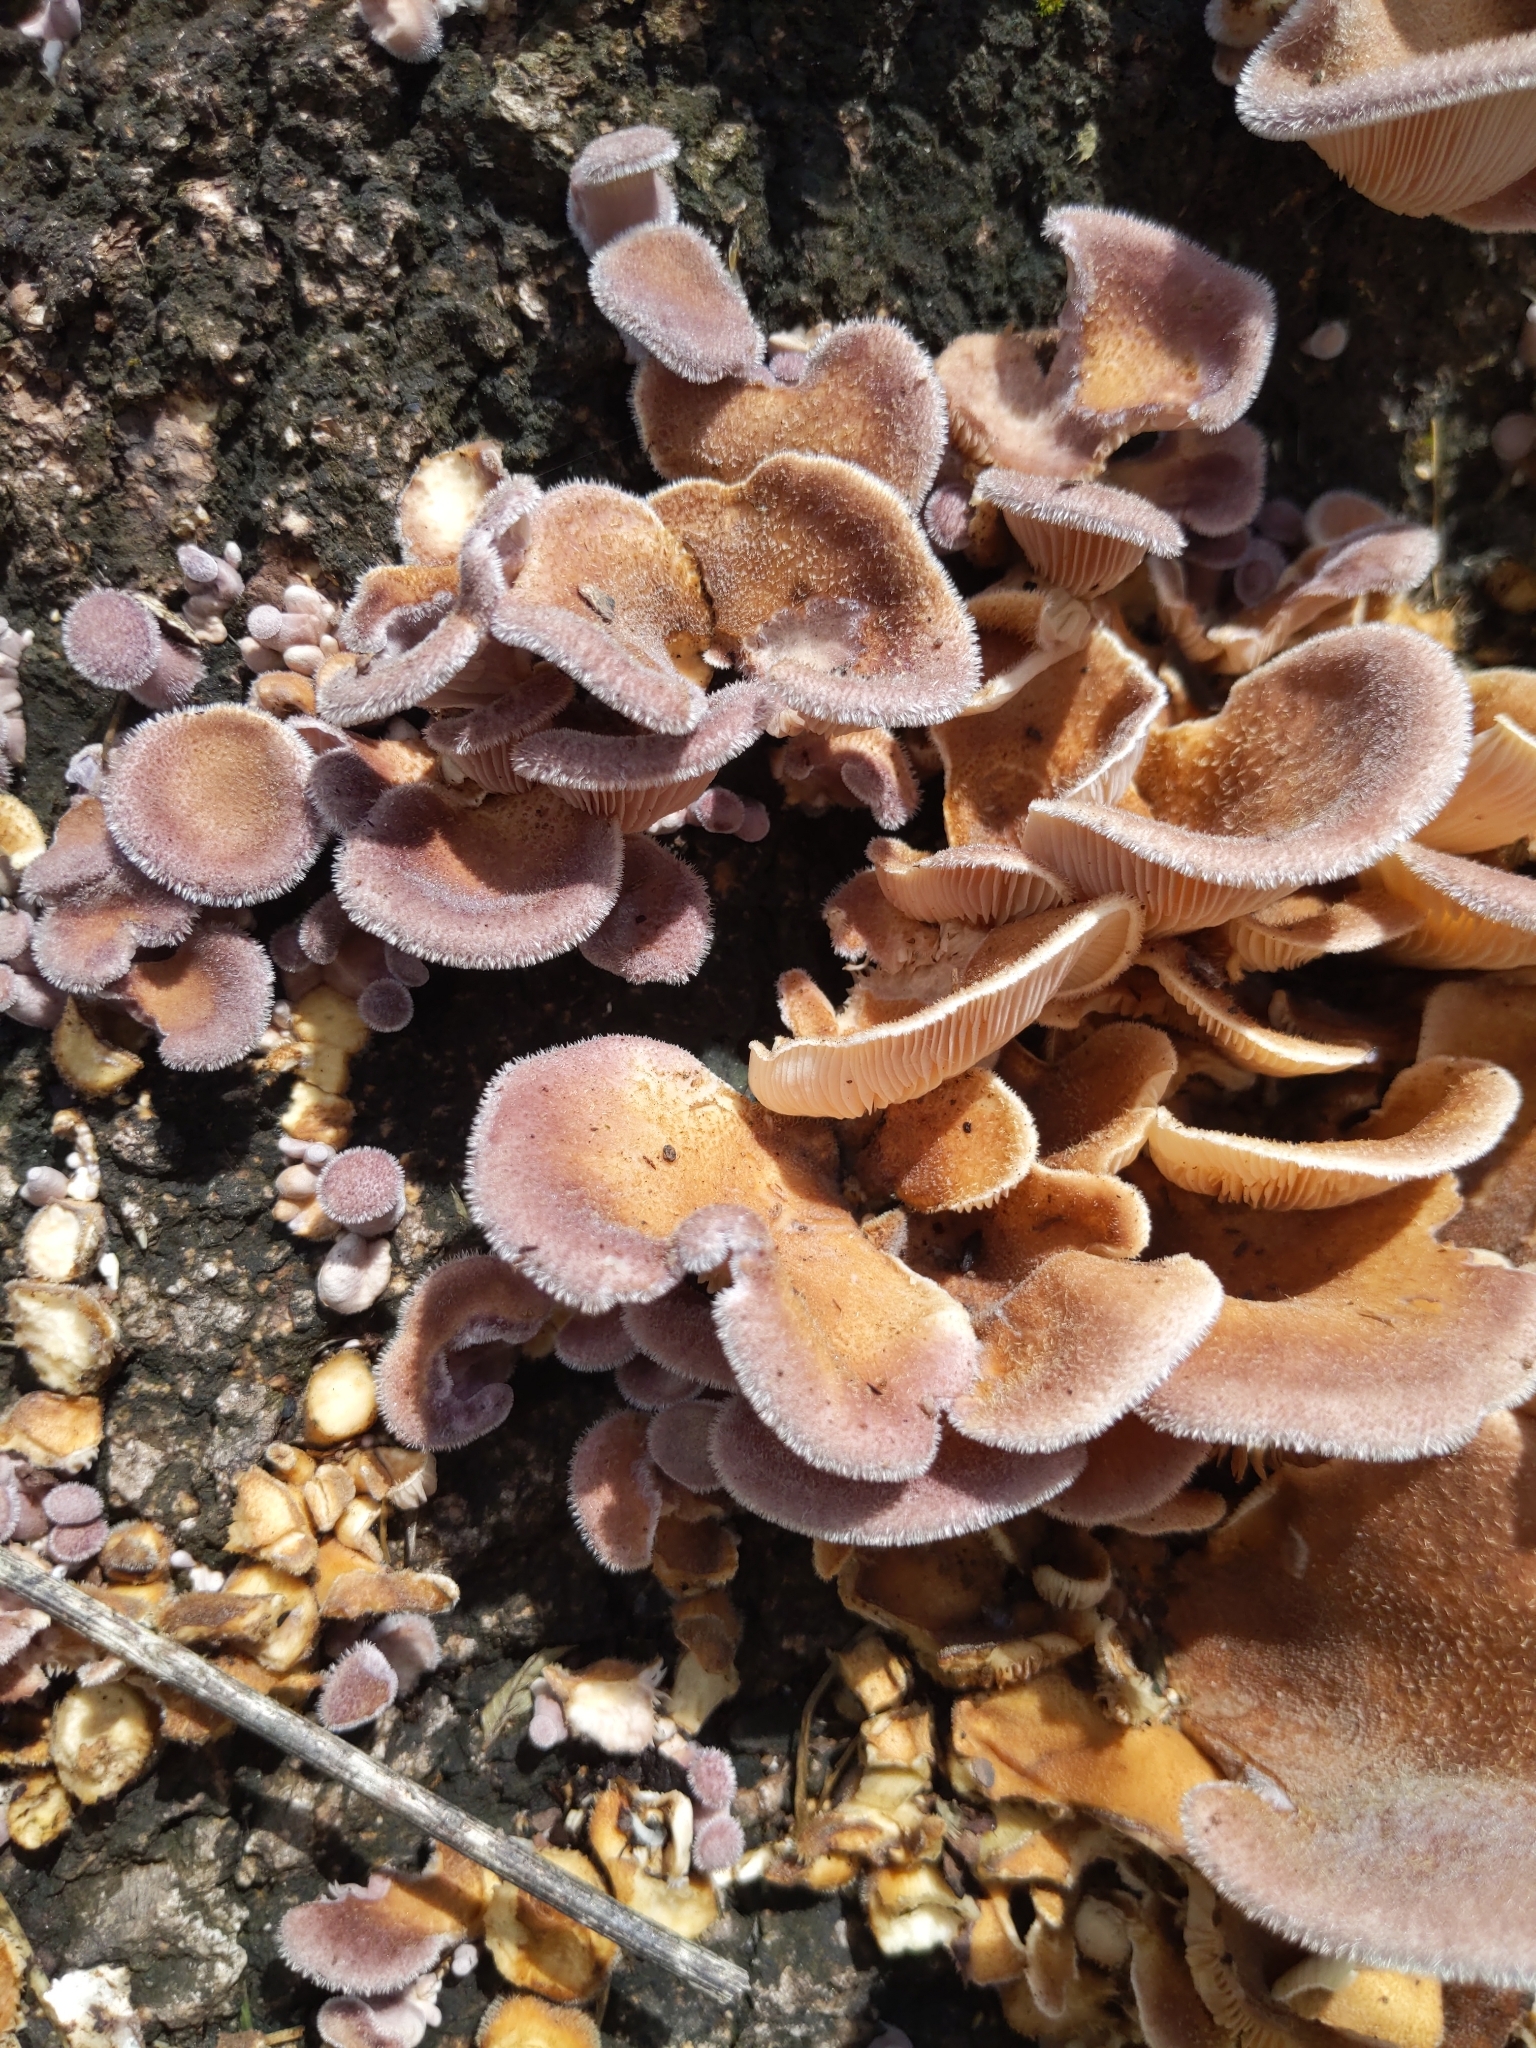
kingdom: Fungi
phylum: Basidiomycota
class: Agaricomycetes
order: Polyporales
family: Panaceae
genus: Panus
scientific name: Panus neostrigosus
